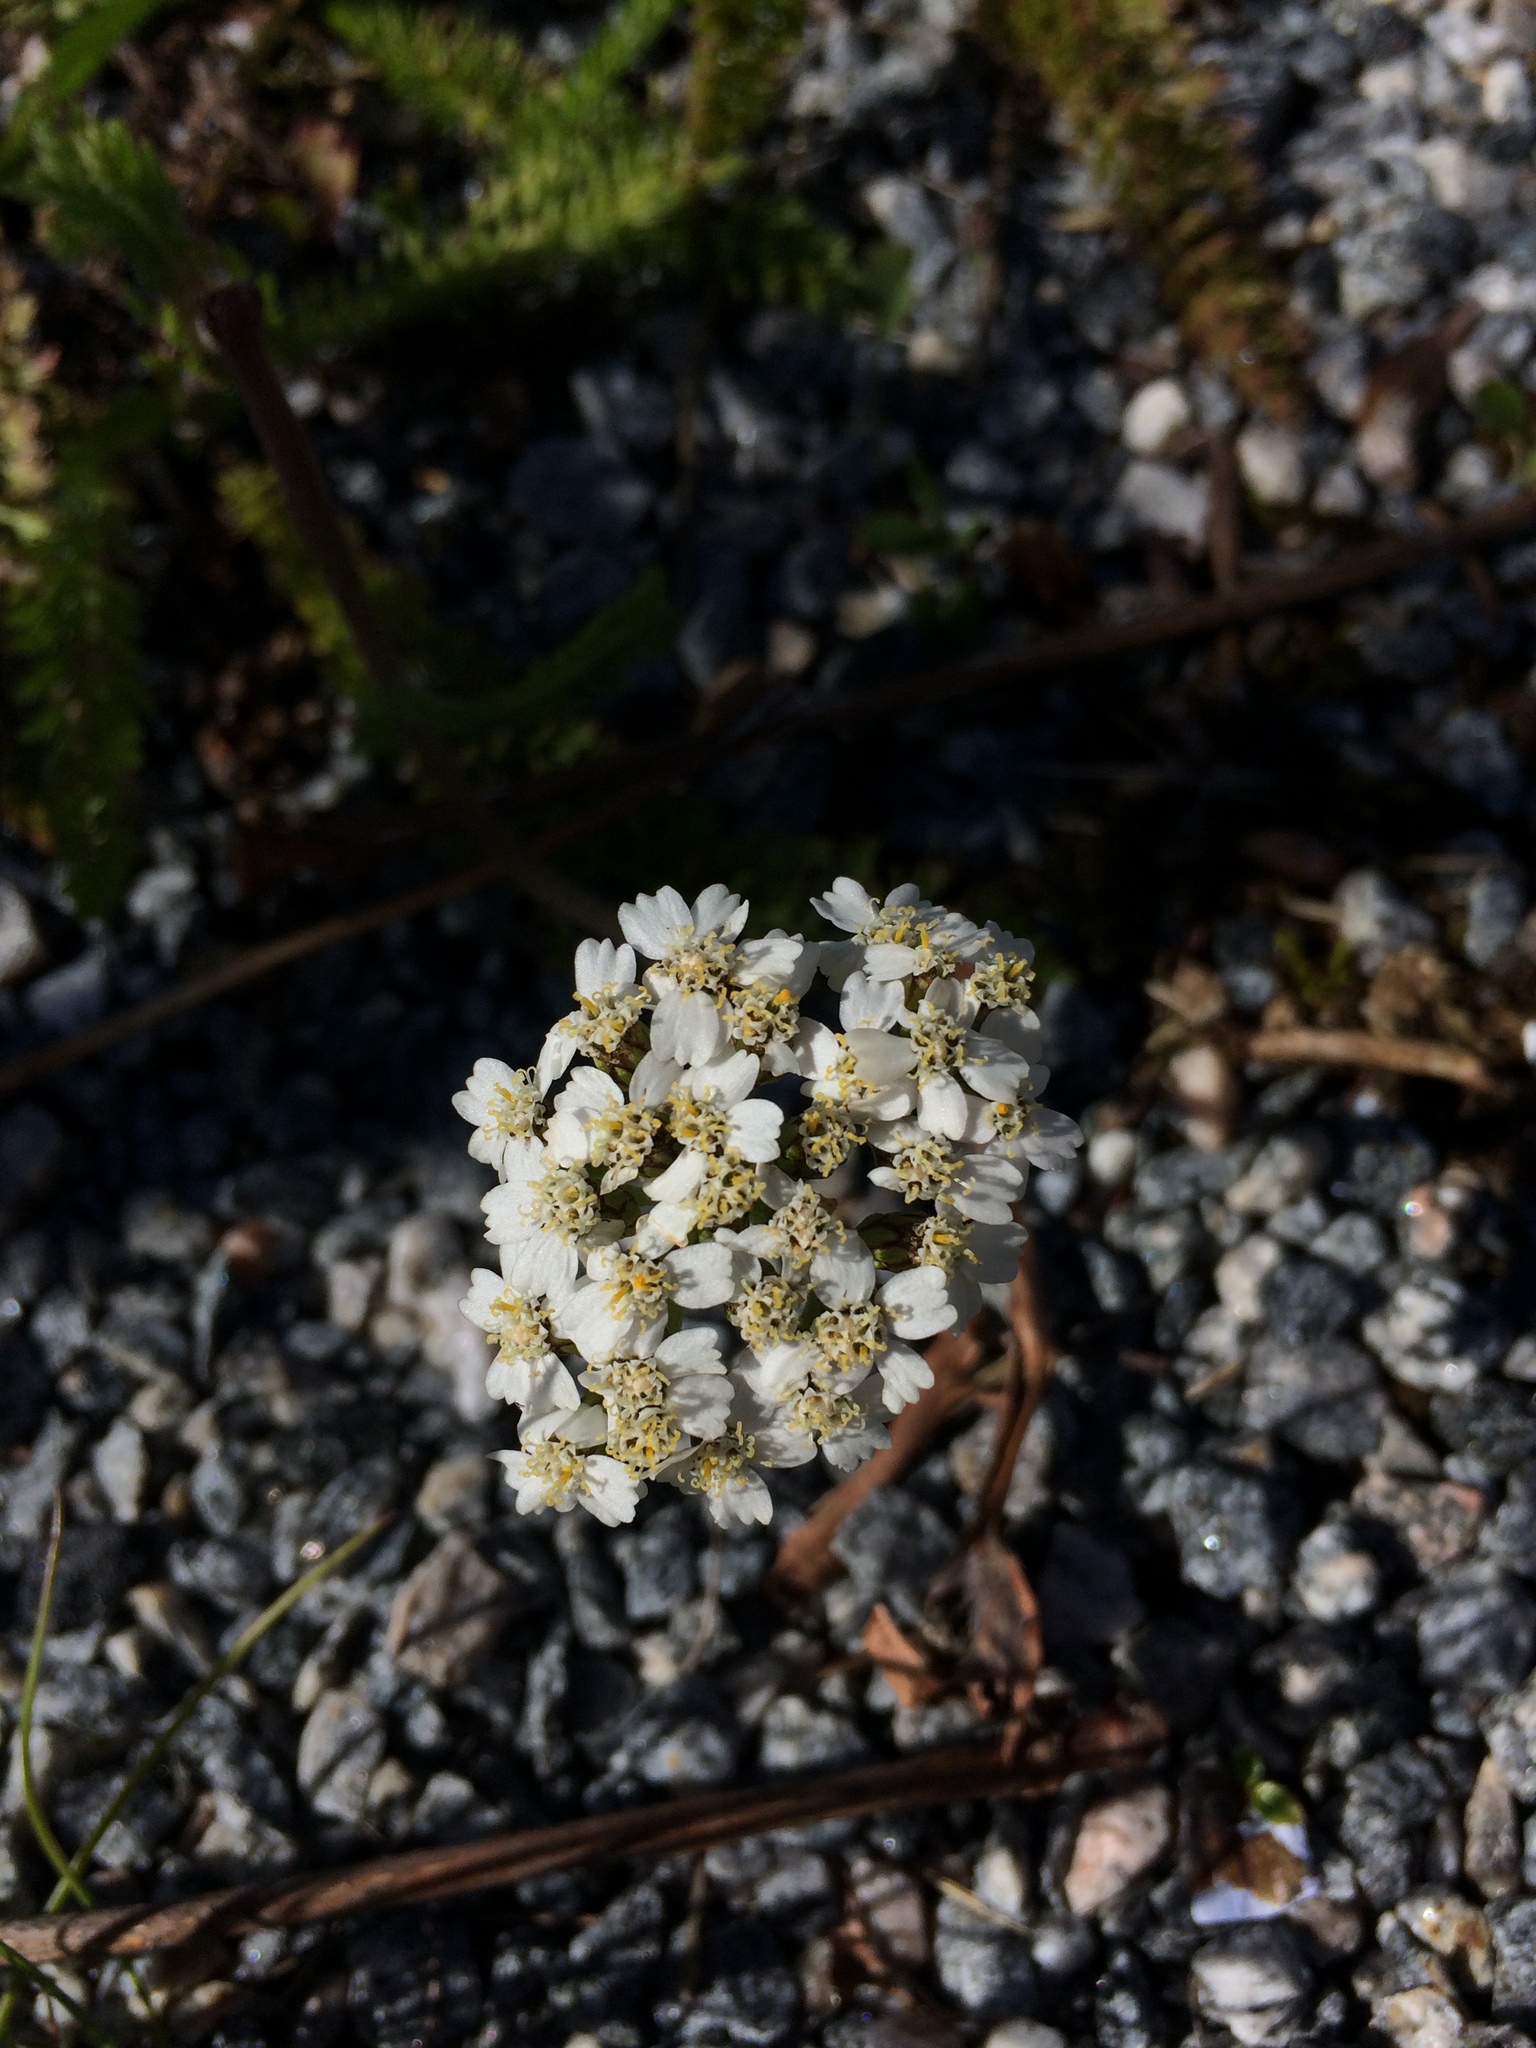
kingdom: Plantae
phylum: Tracheophyta
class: Magnoliopsida
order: Asterales
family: Asteraceae
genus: Achillea
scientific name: Achillea millefolium
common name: Yarrow
